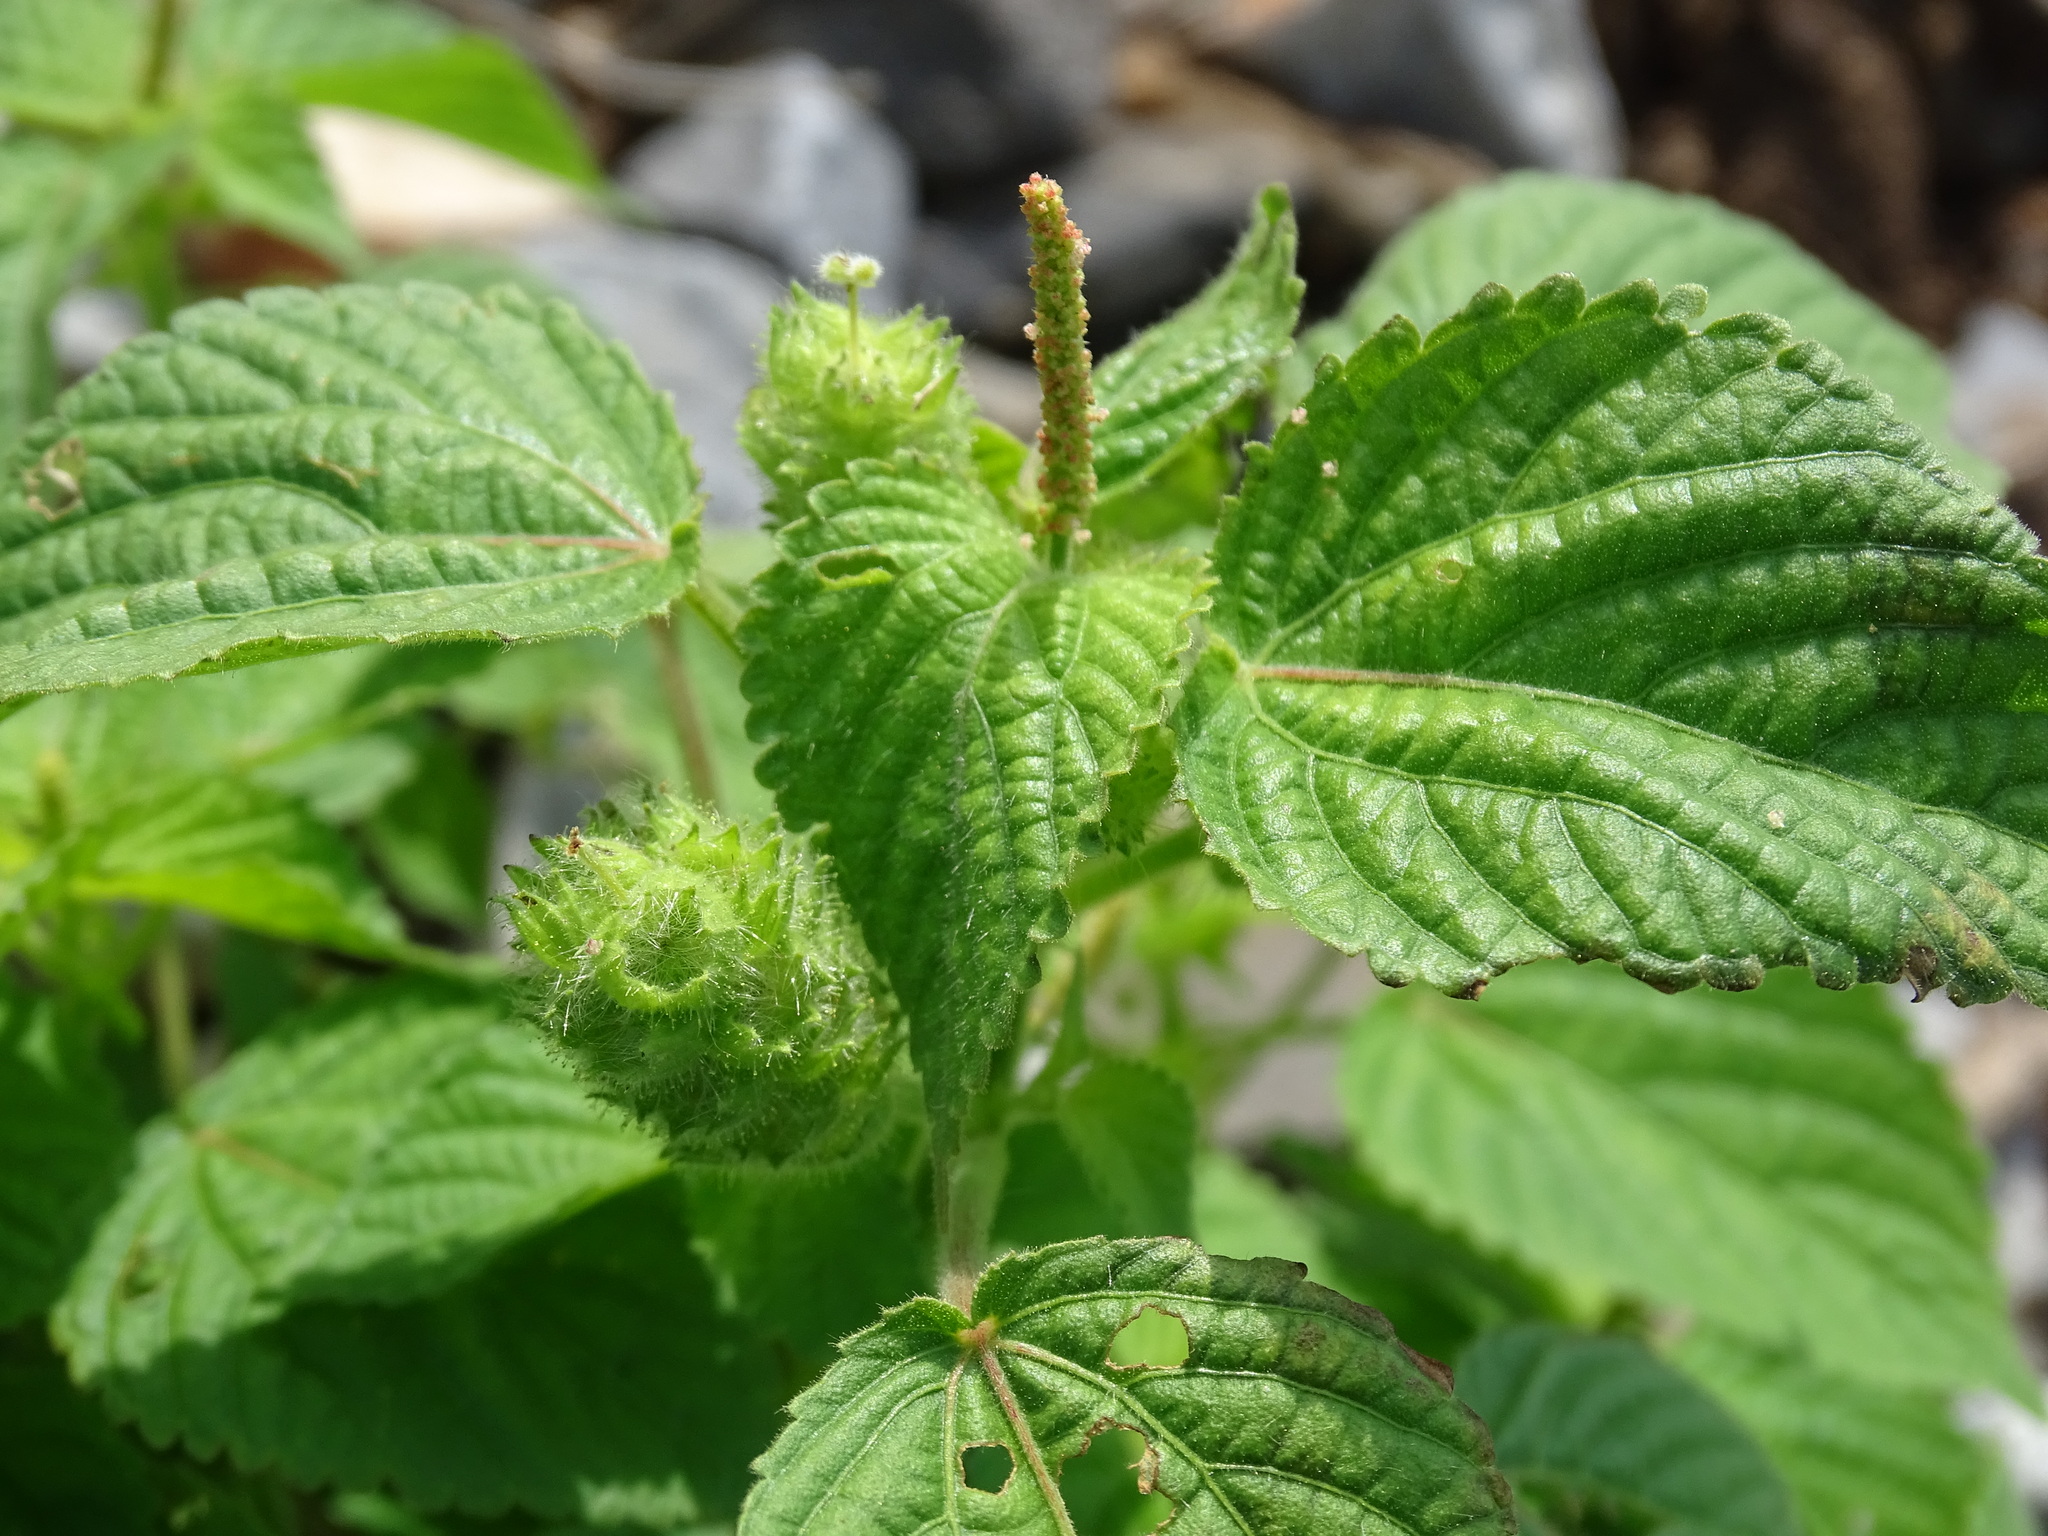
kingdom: Plantae
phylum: Tracheophyta
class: Magnoliopsida
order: Malpighiales
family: Euphorbiaceae
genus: Acalypha
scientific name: Acalypha havanensis
